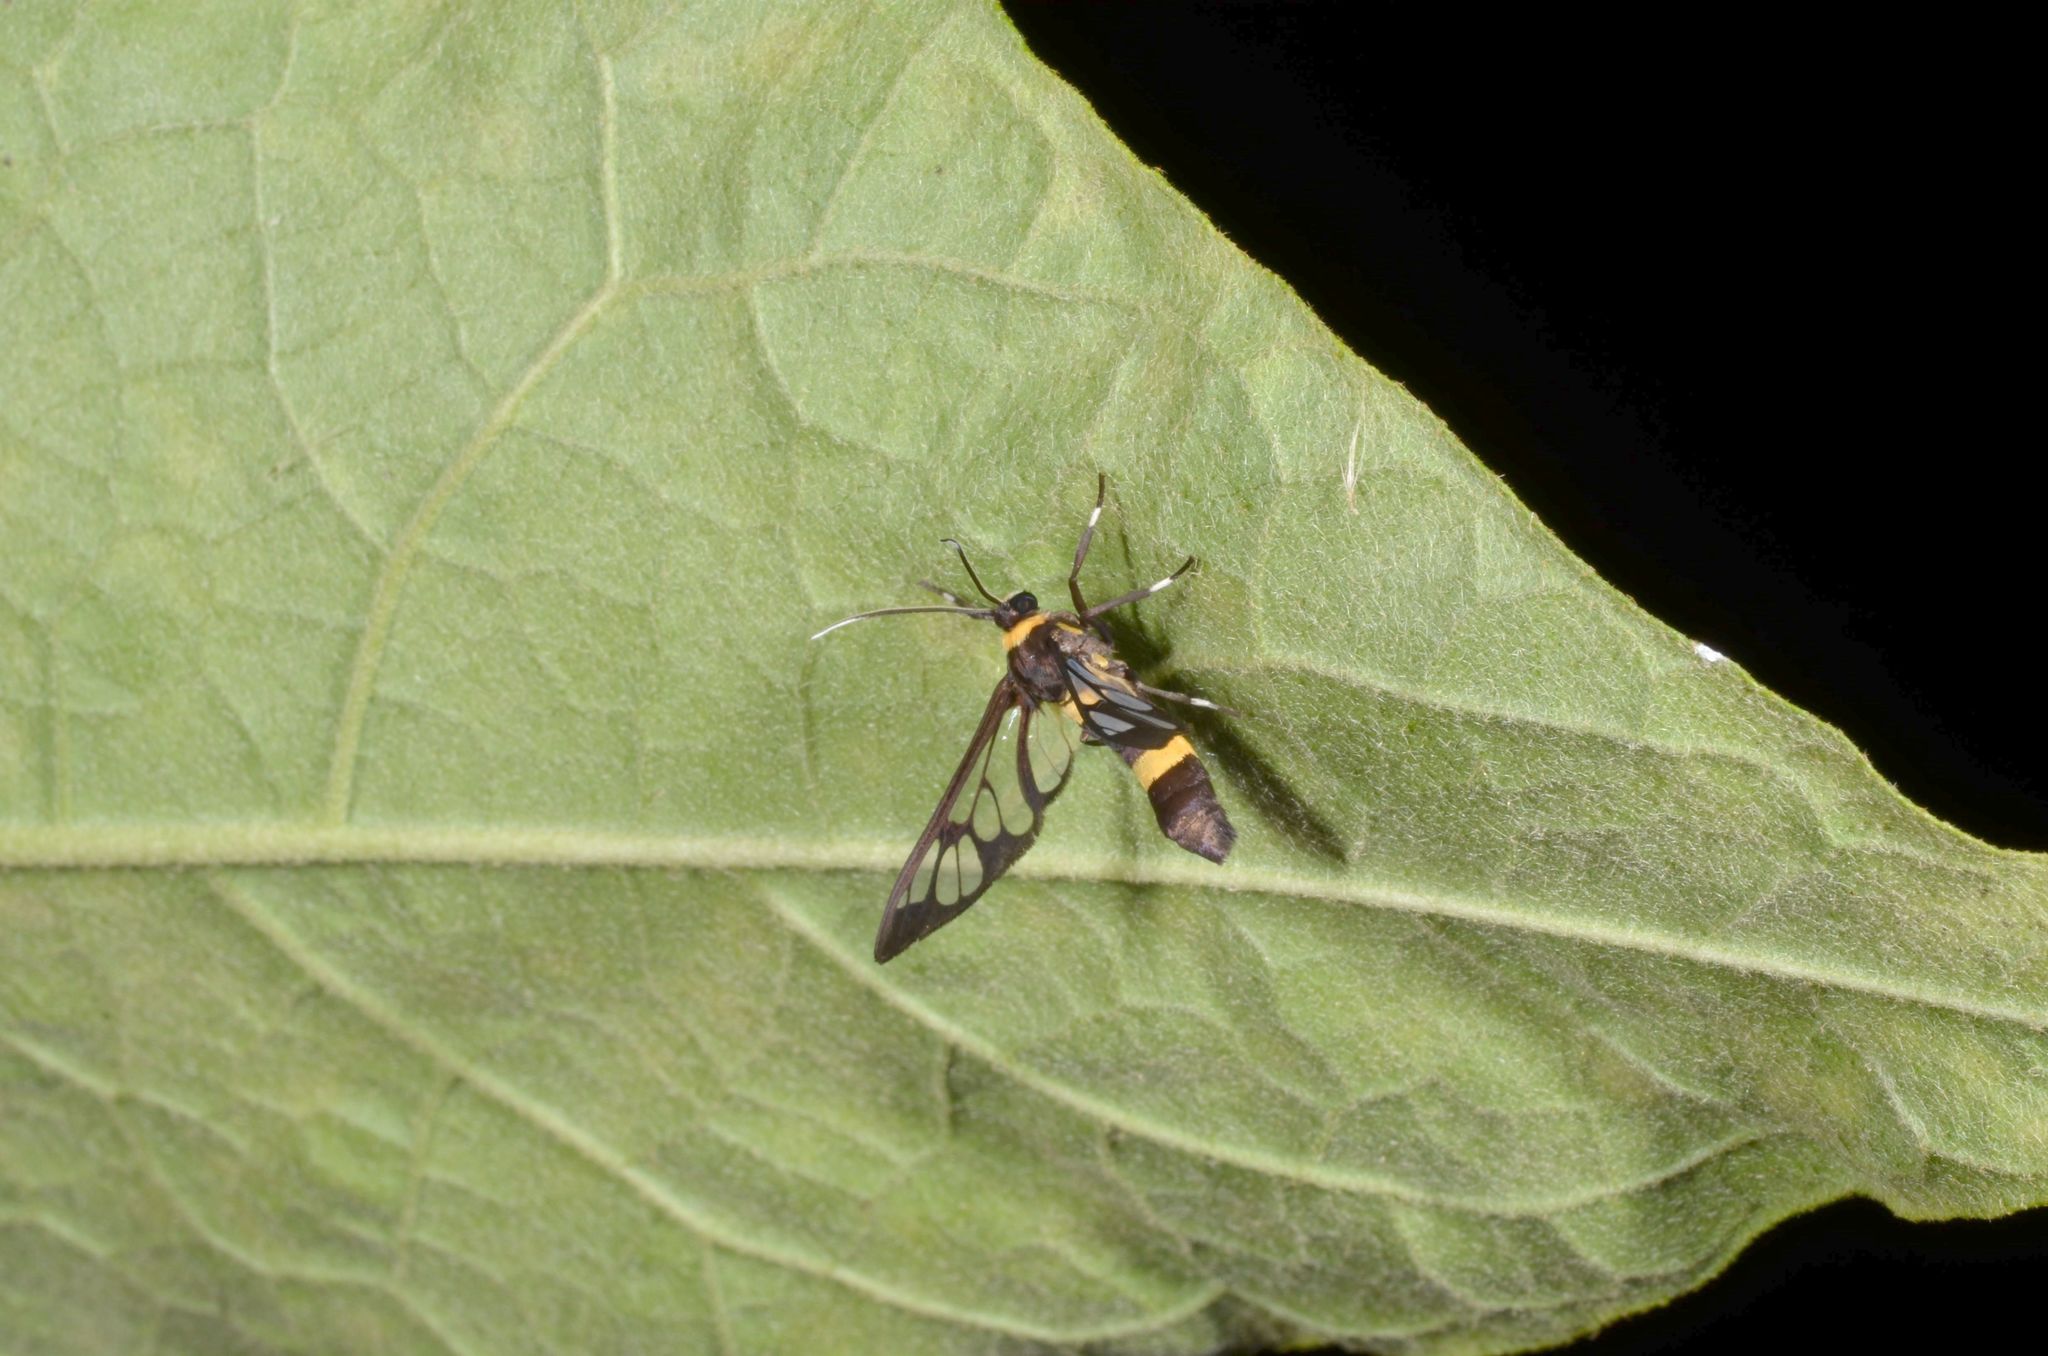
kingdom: Animalia
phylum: Arthropoda
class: Insecta
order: Lepidoptera
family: Erebidae
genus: Syntomoides
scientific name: Syntomoides imaon
